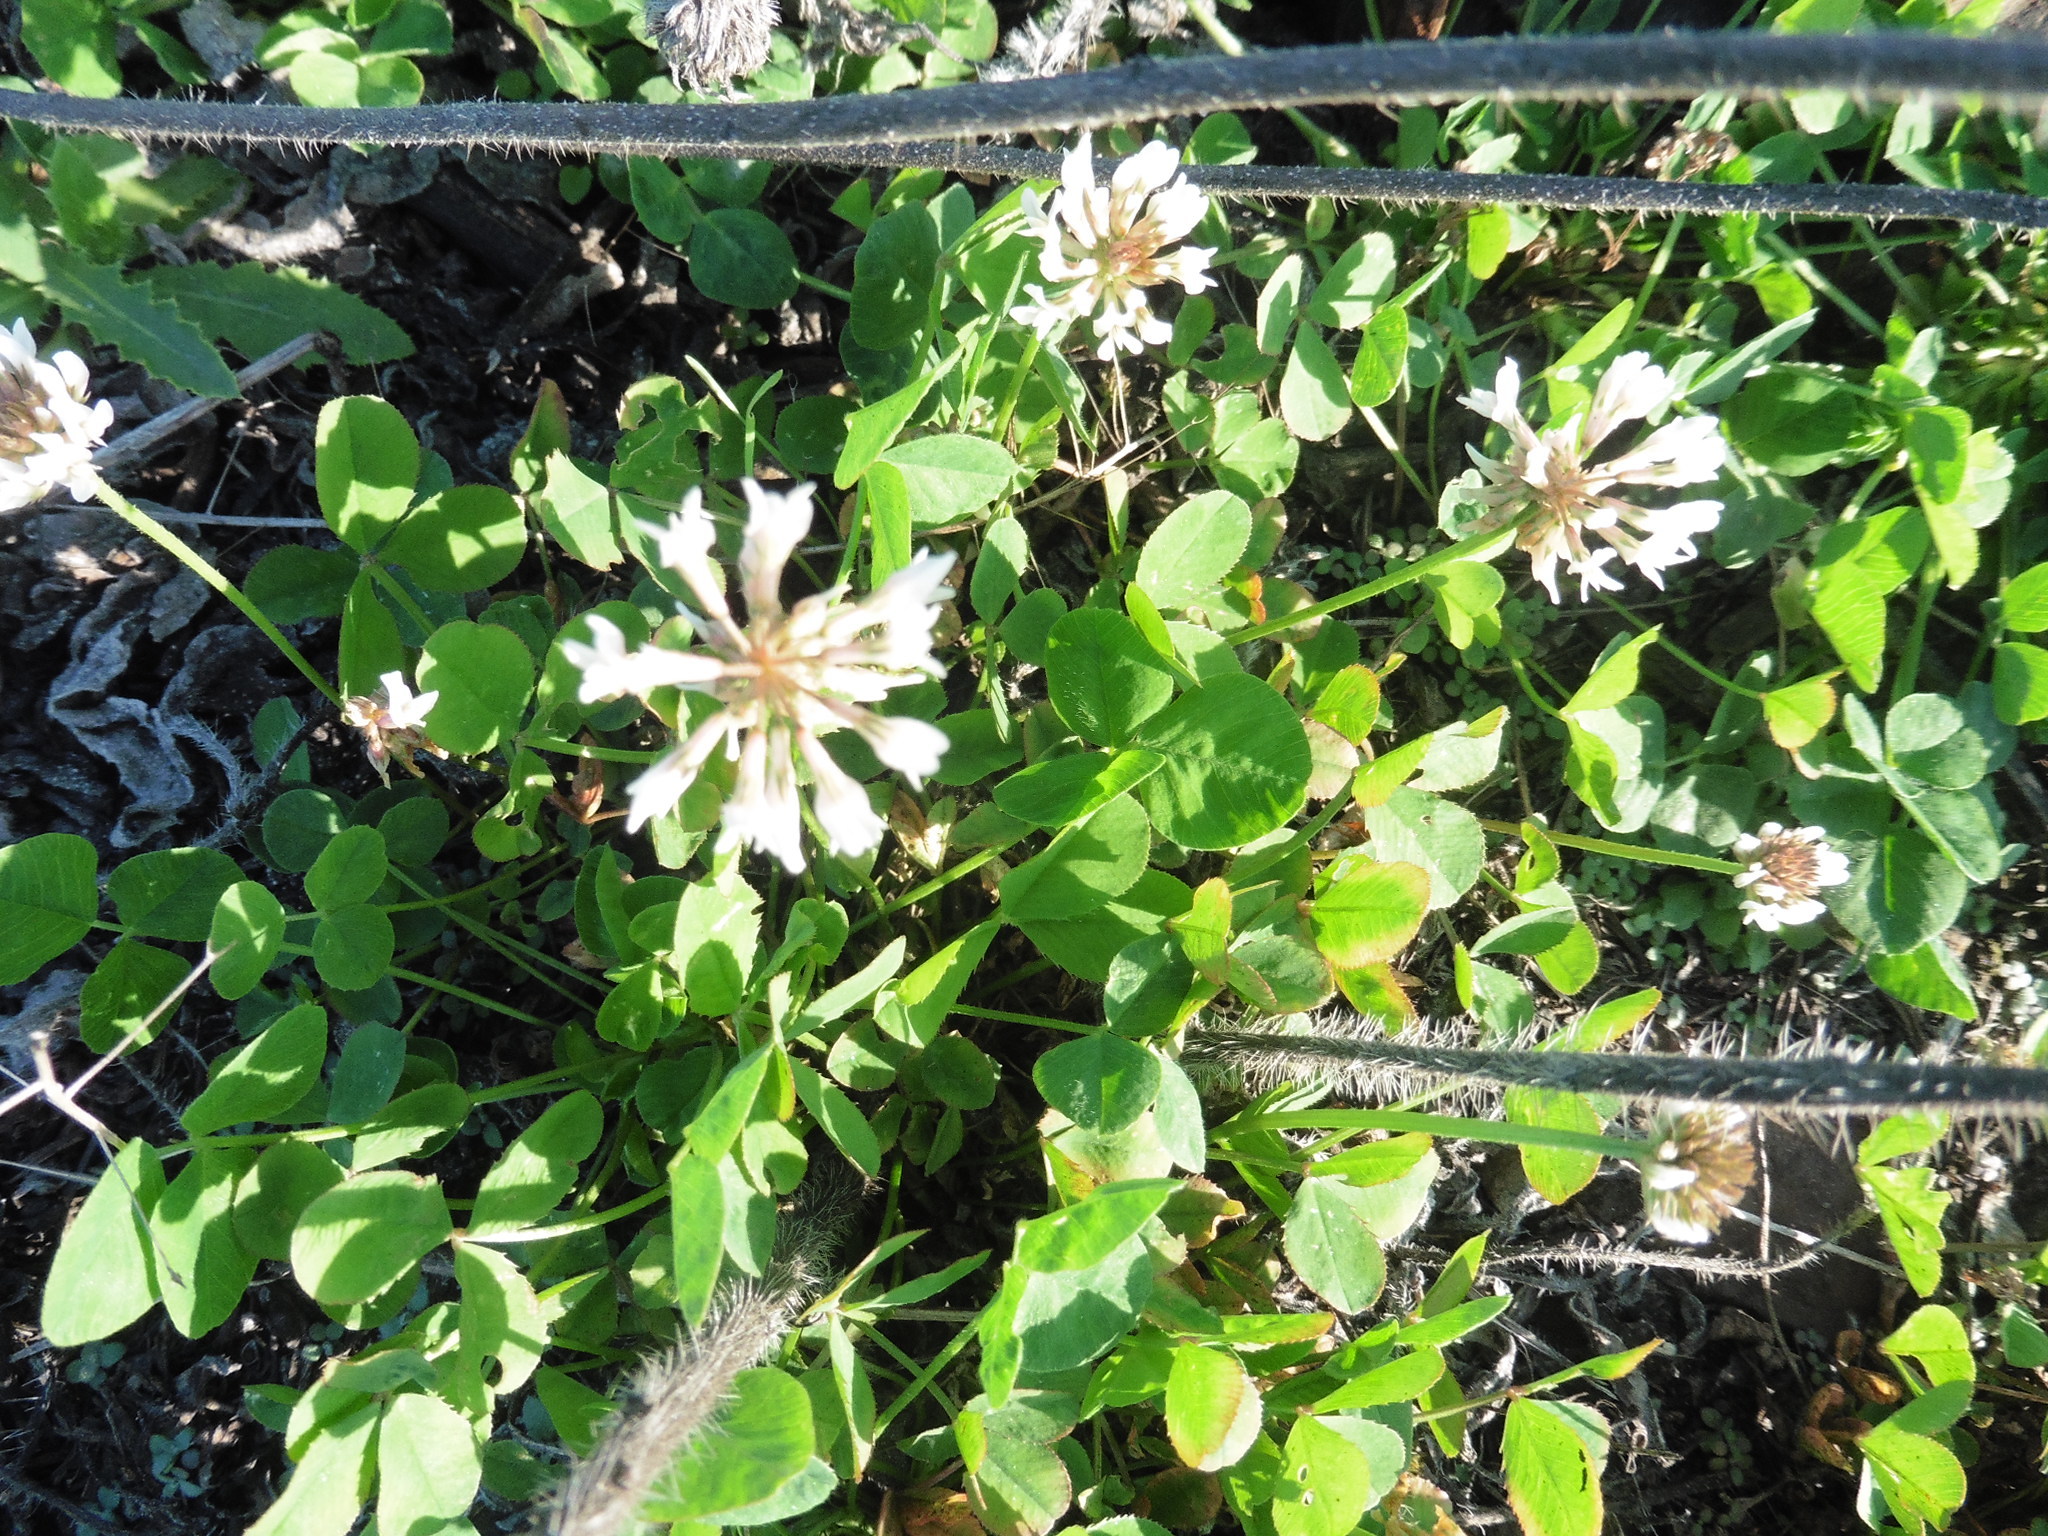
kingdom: Plantae
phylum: Tracheophyta
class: Magnoliopsida
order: Fabales
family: Fabaceae
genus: Trifolium
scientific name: Trifolium repens
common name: White clover
